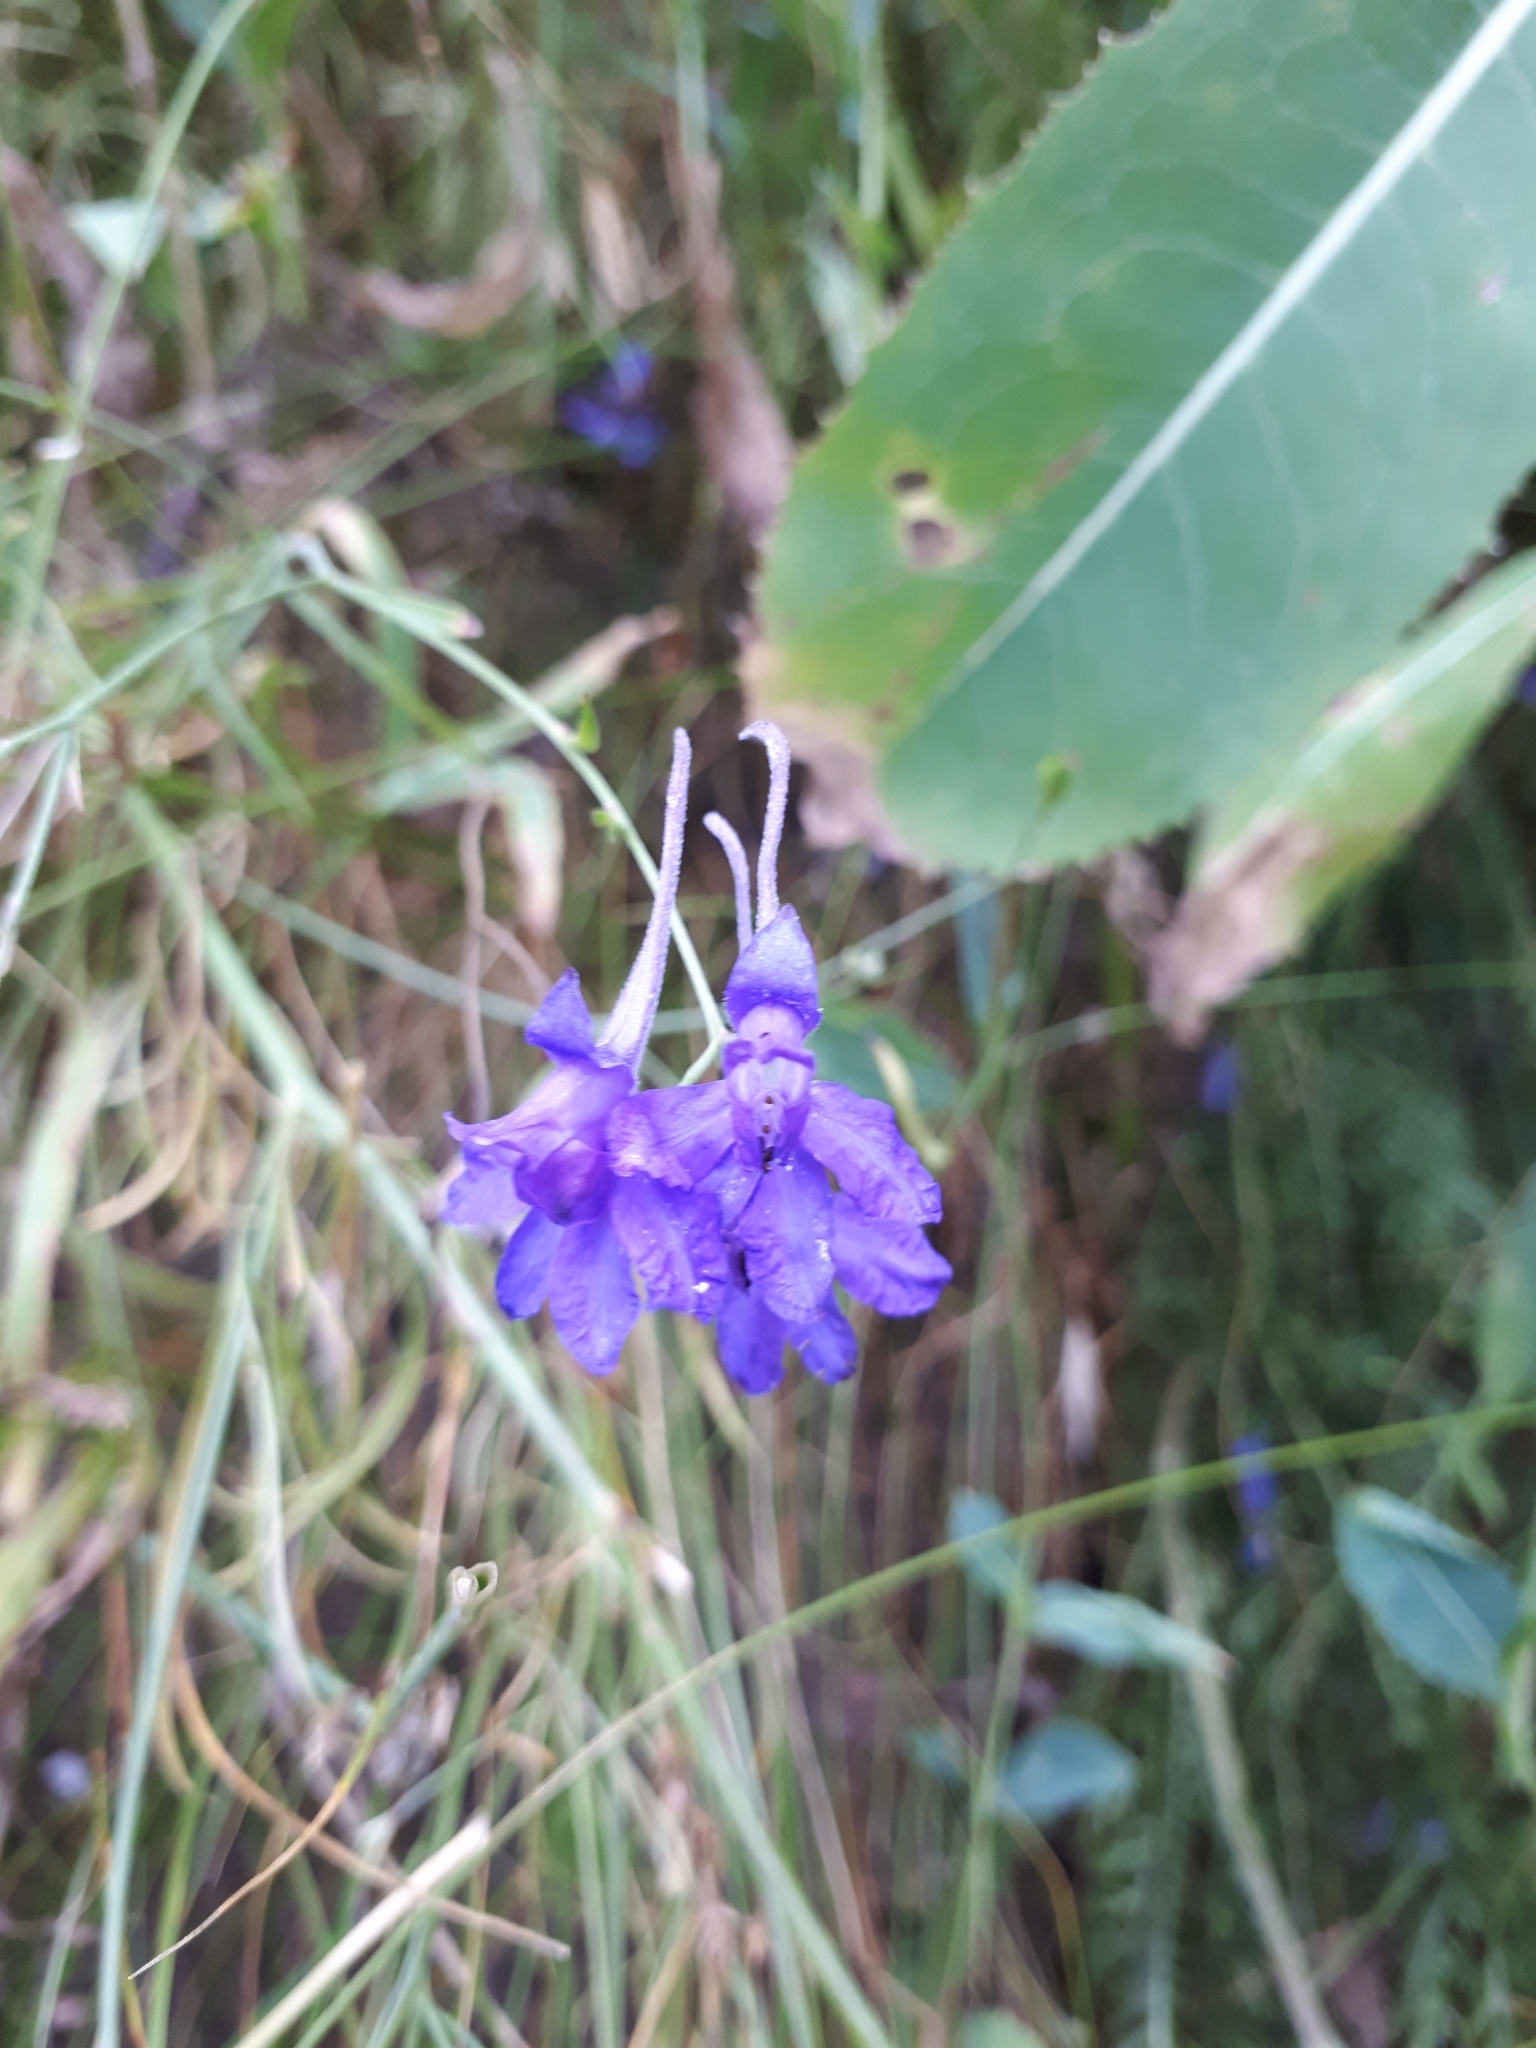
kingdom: Plantae
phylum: Tracheophyta
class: Magnoliopsida
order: Ranunculales
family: Ranunculaceae
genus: Delphinium
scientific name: Delphinium consolida
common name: Branching larkspur
